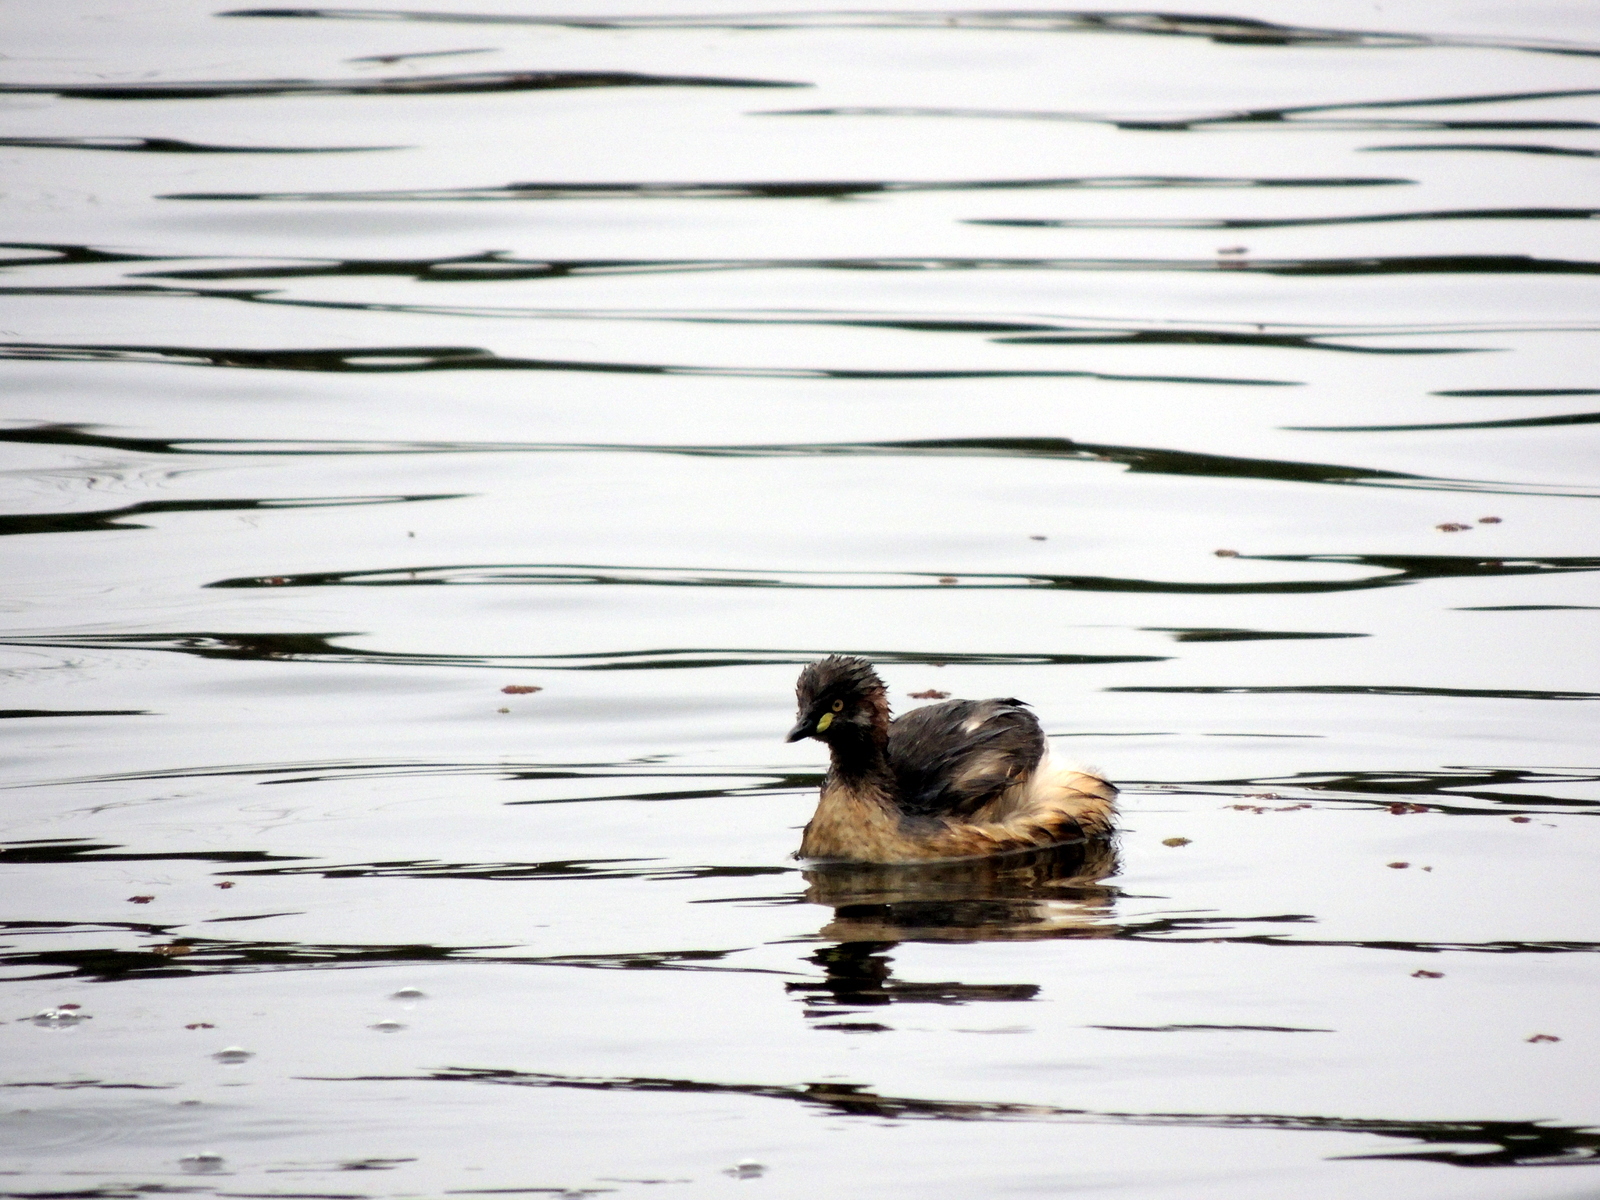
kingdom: Animalia
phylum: Chordata
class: Aves
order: Podicipediformes
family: Podicipedidae
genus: Tachybaptus
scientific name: Tachybaptus novaehollandiae
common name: Australasian grebe
